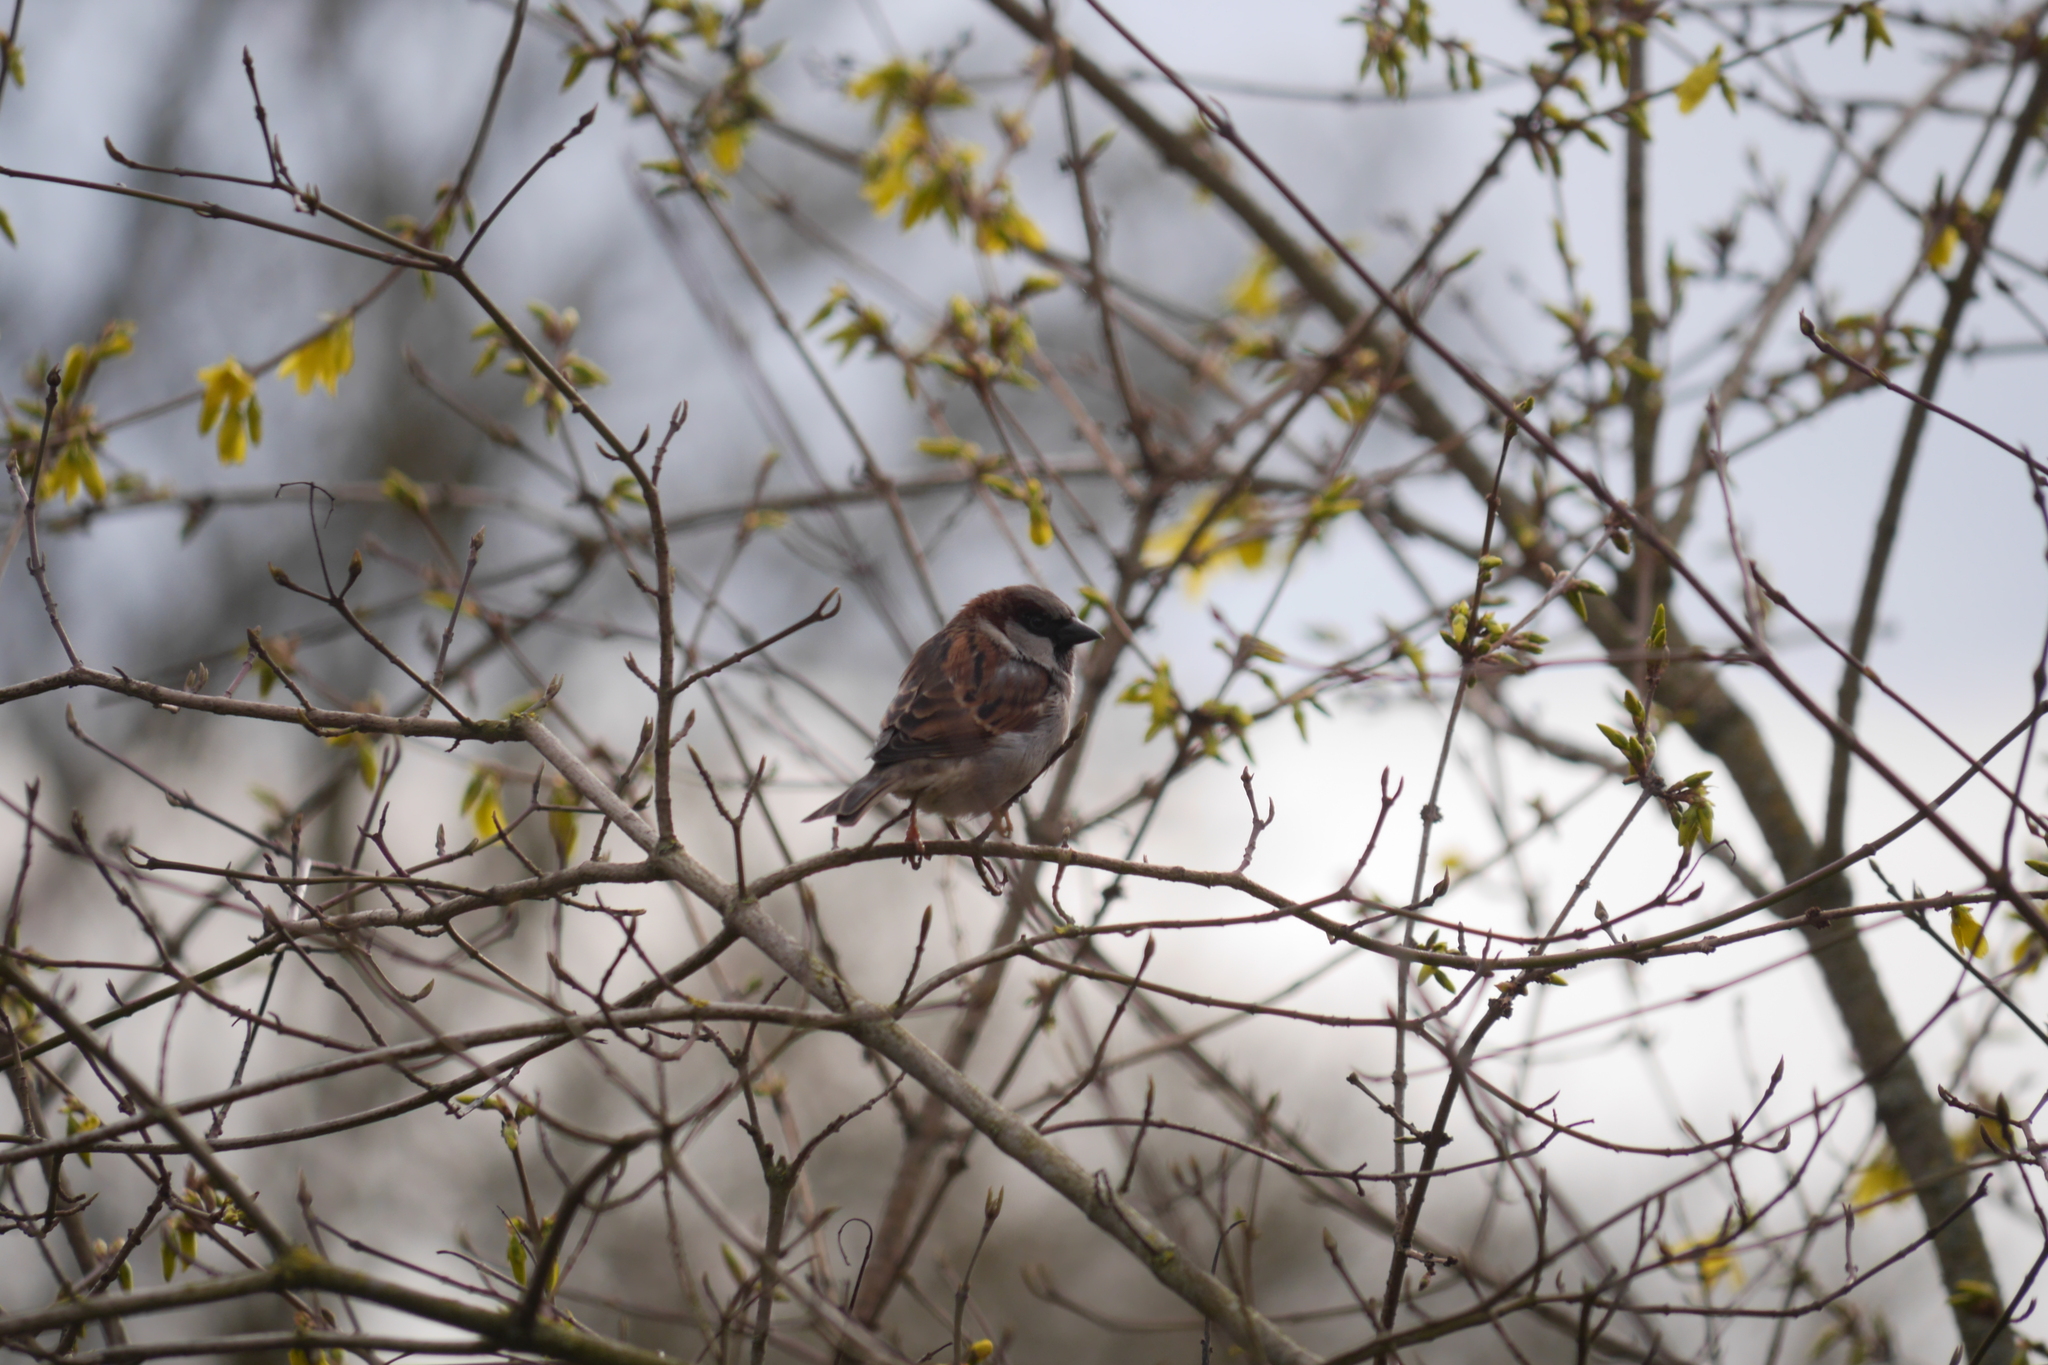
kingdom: Animalia
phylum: Chordata
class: Aves
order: Passeriformes
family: Passeridae
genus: Passer
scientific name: Passer domesticus
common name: House sparrow
